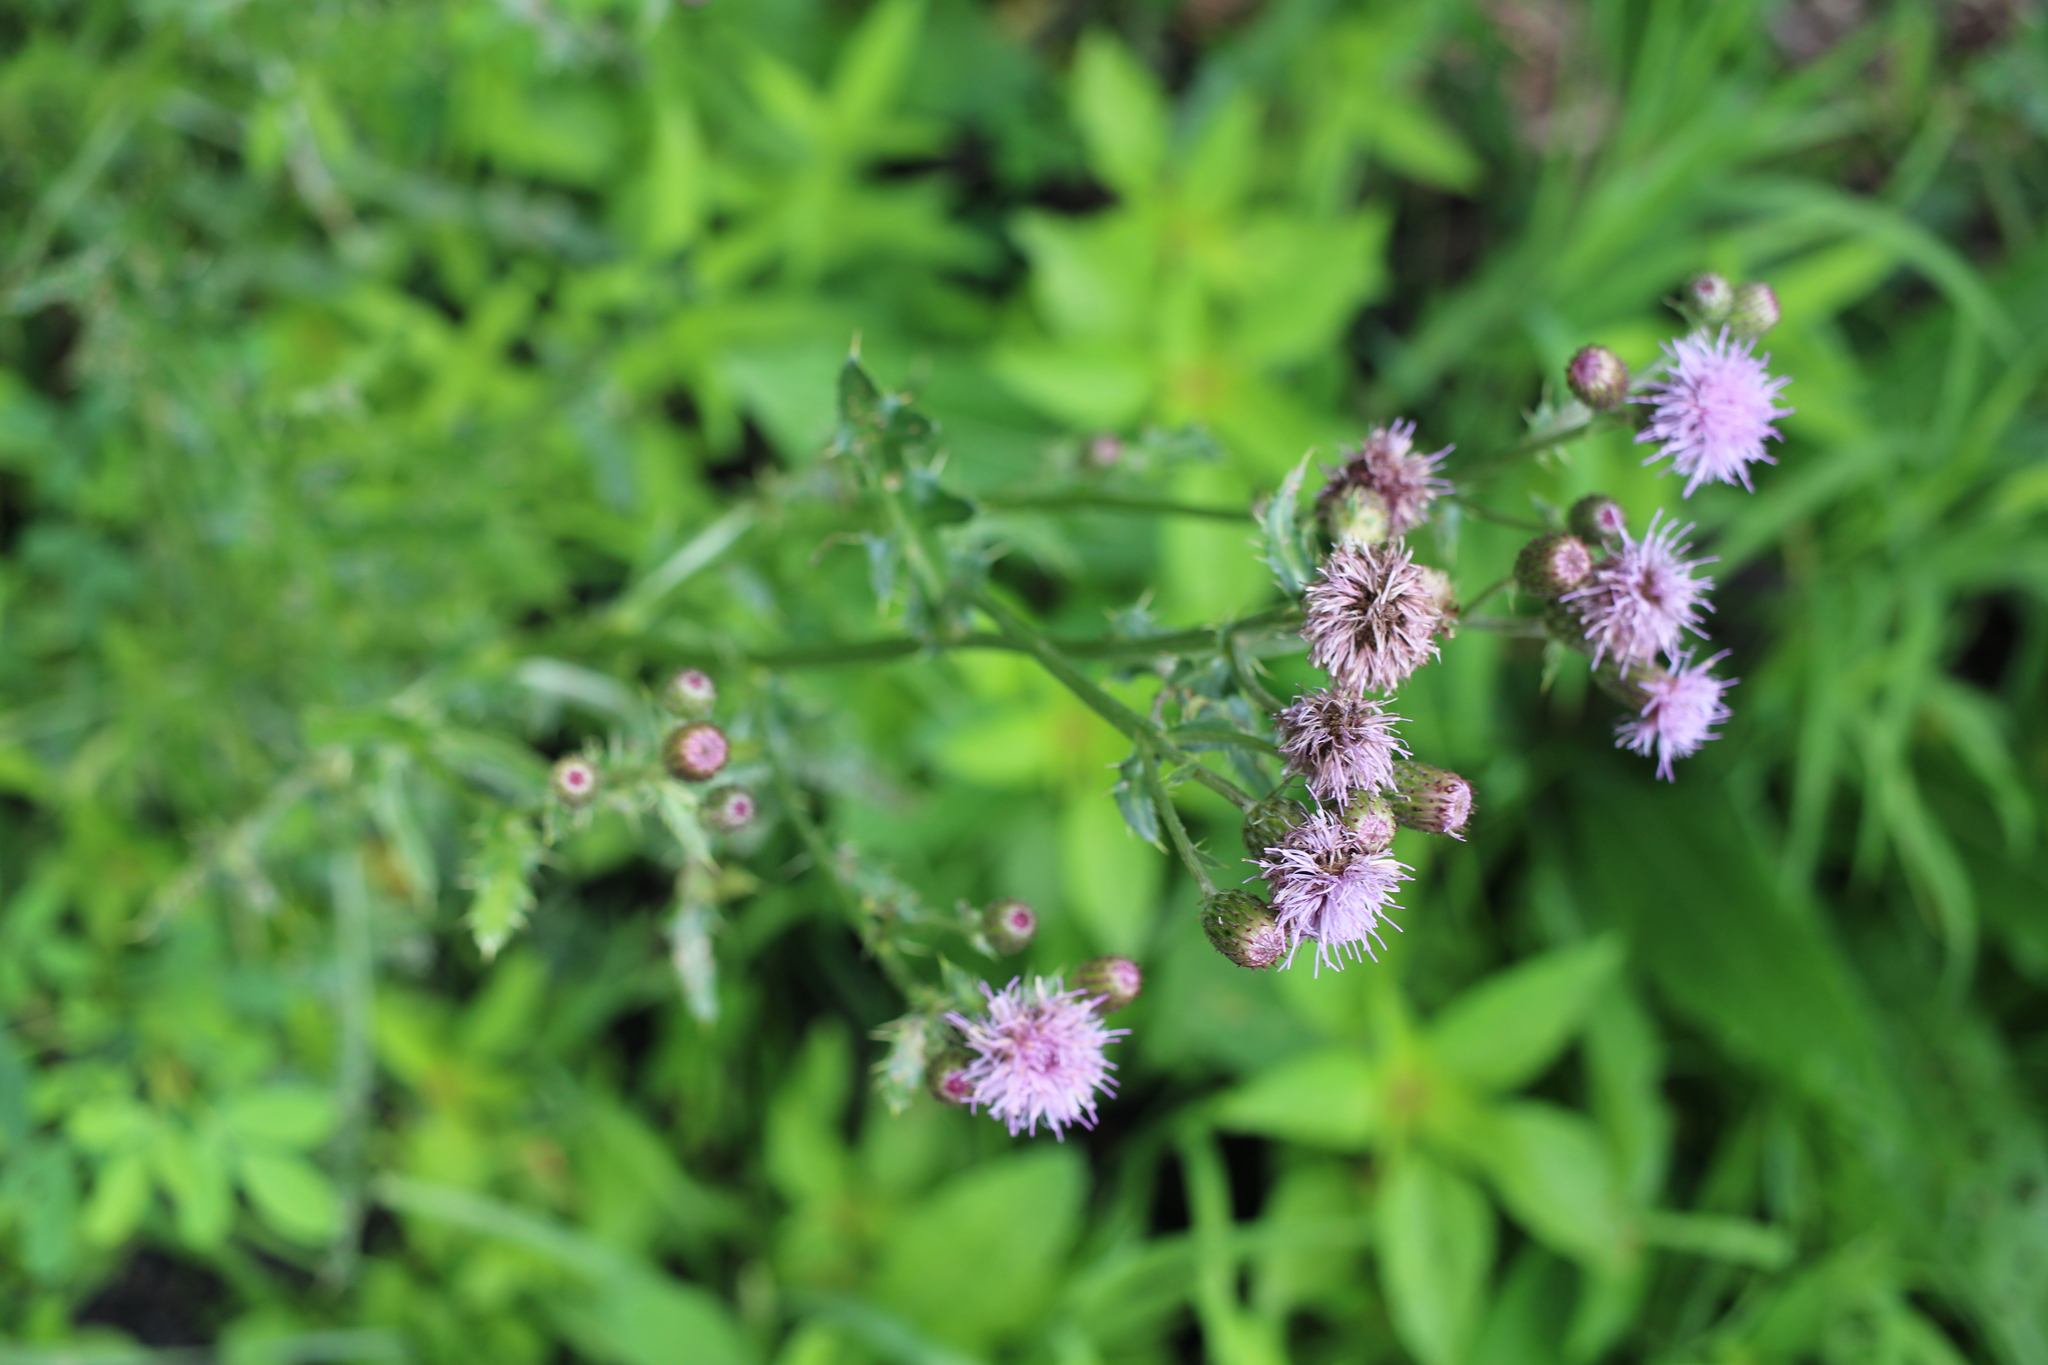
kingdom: Plantae
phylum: Tracheophyta
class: Magnoliopsida
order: Asterales
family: Asteraceae
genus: Cirsium
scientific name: Cirsium arvense
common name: Creeping thistle
